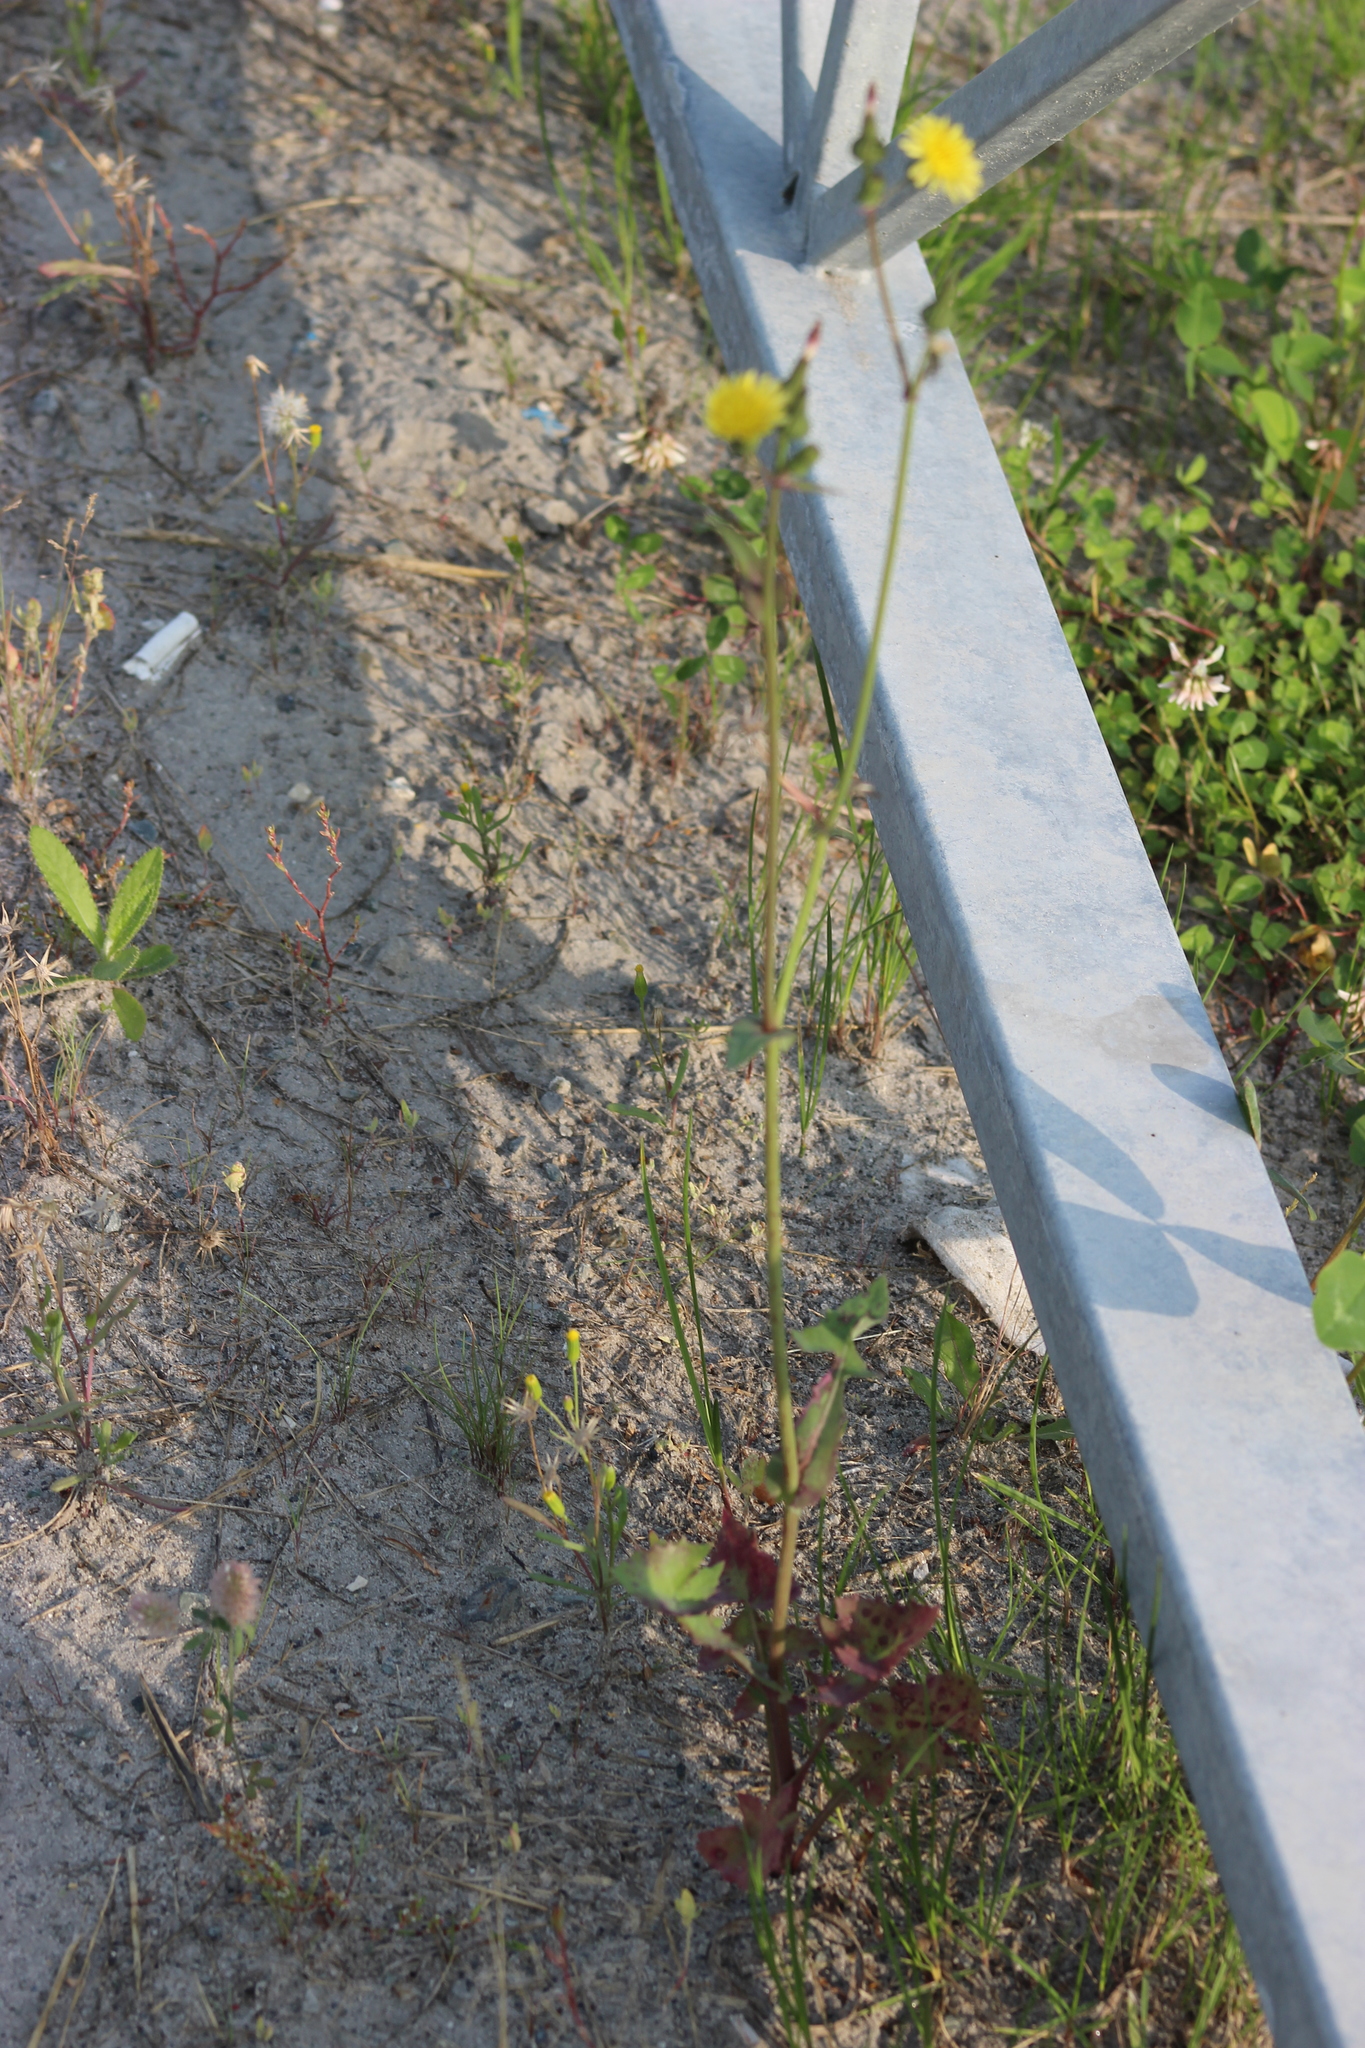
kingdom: Plantae
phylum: Tracheophyta
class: Magnoliopsida
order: Asterales
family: Asteraceae
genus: Sonchus
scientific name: Sonchus oleraceus
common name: Common sowthistle
